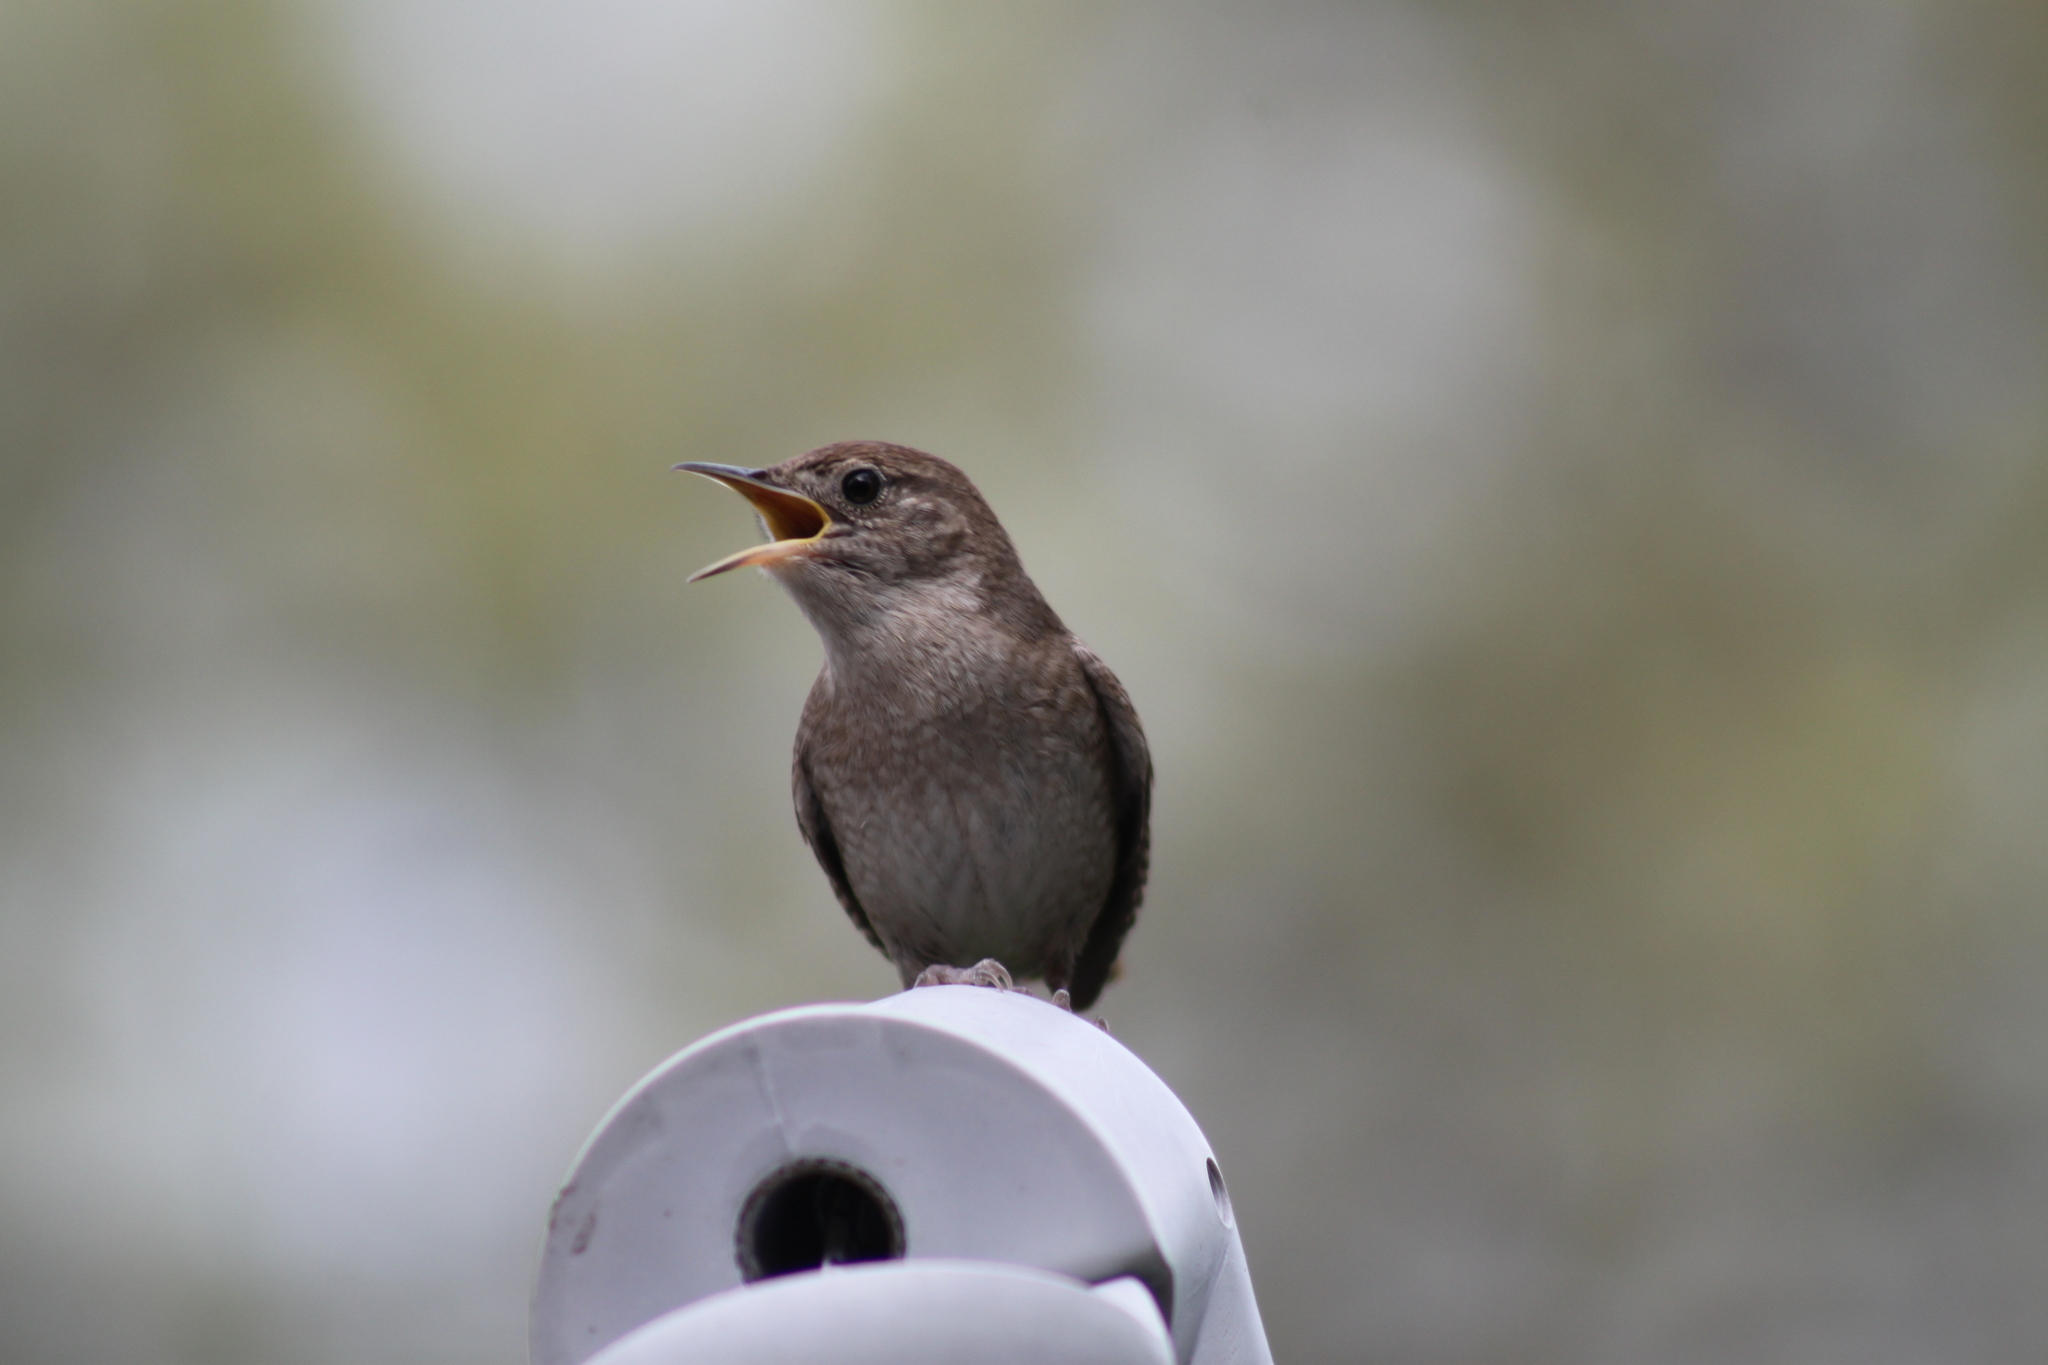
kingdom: Animalia
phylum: Chordata
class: Aves
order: Passeriformes
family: Troglodytidae
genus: Troglodytes
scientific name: Troglodytes aedon
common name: House wren
